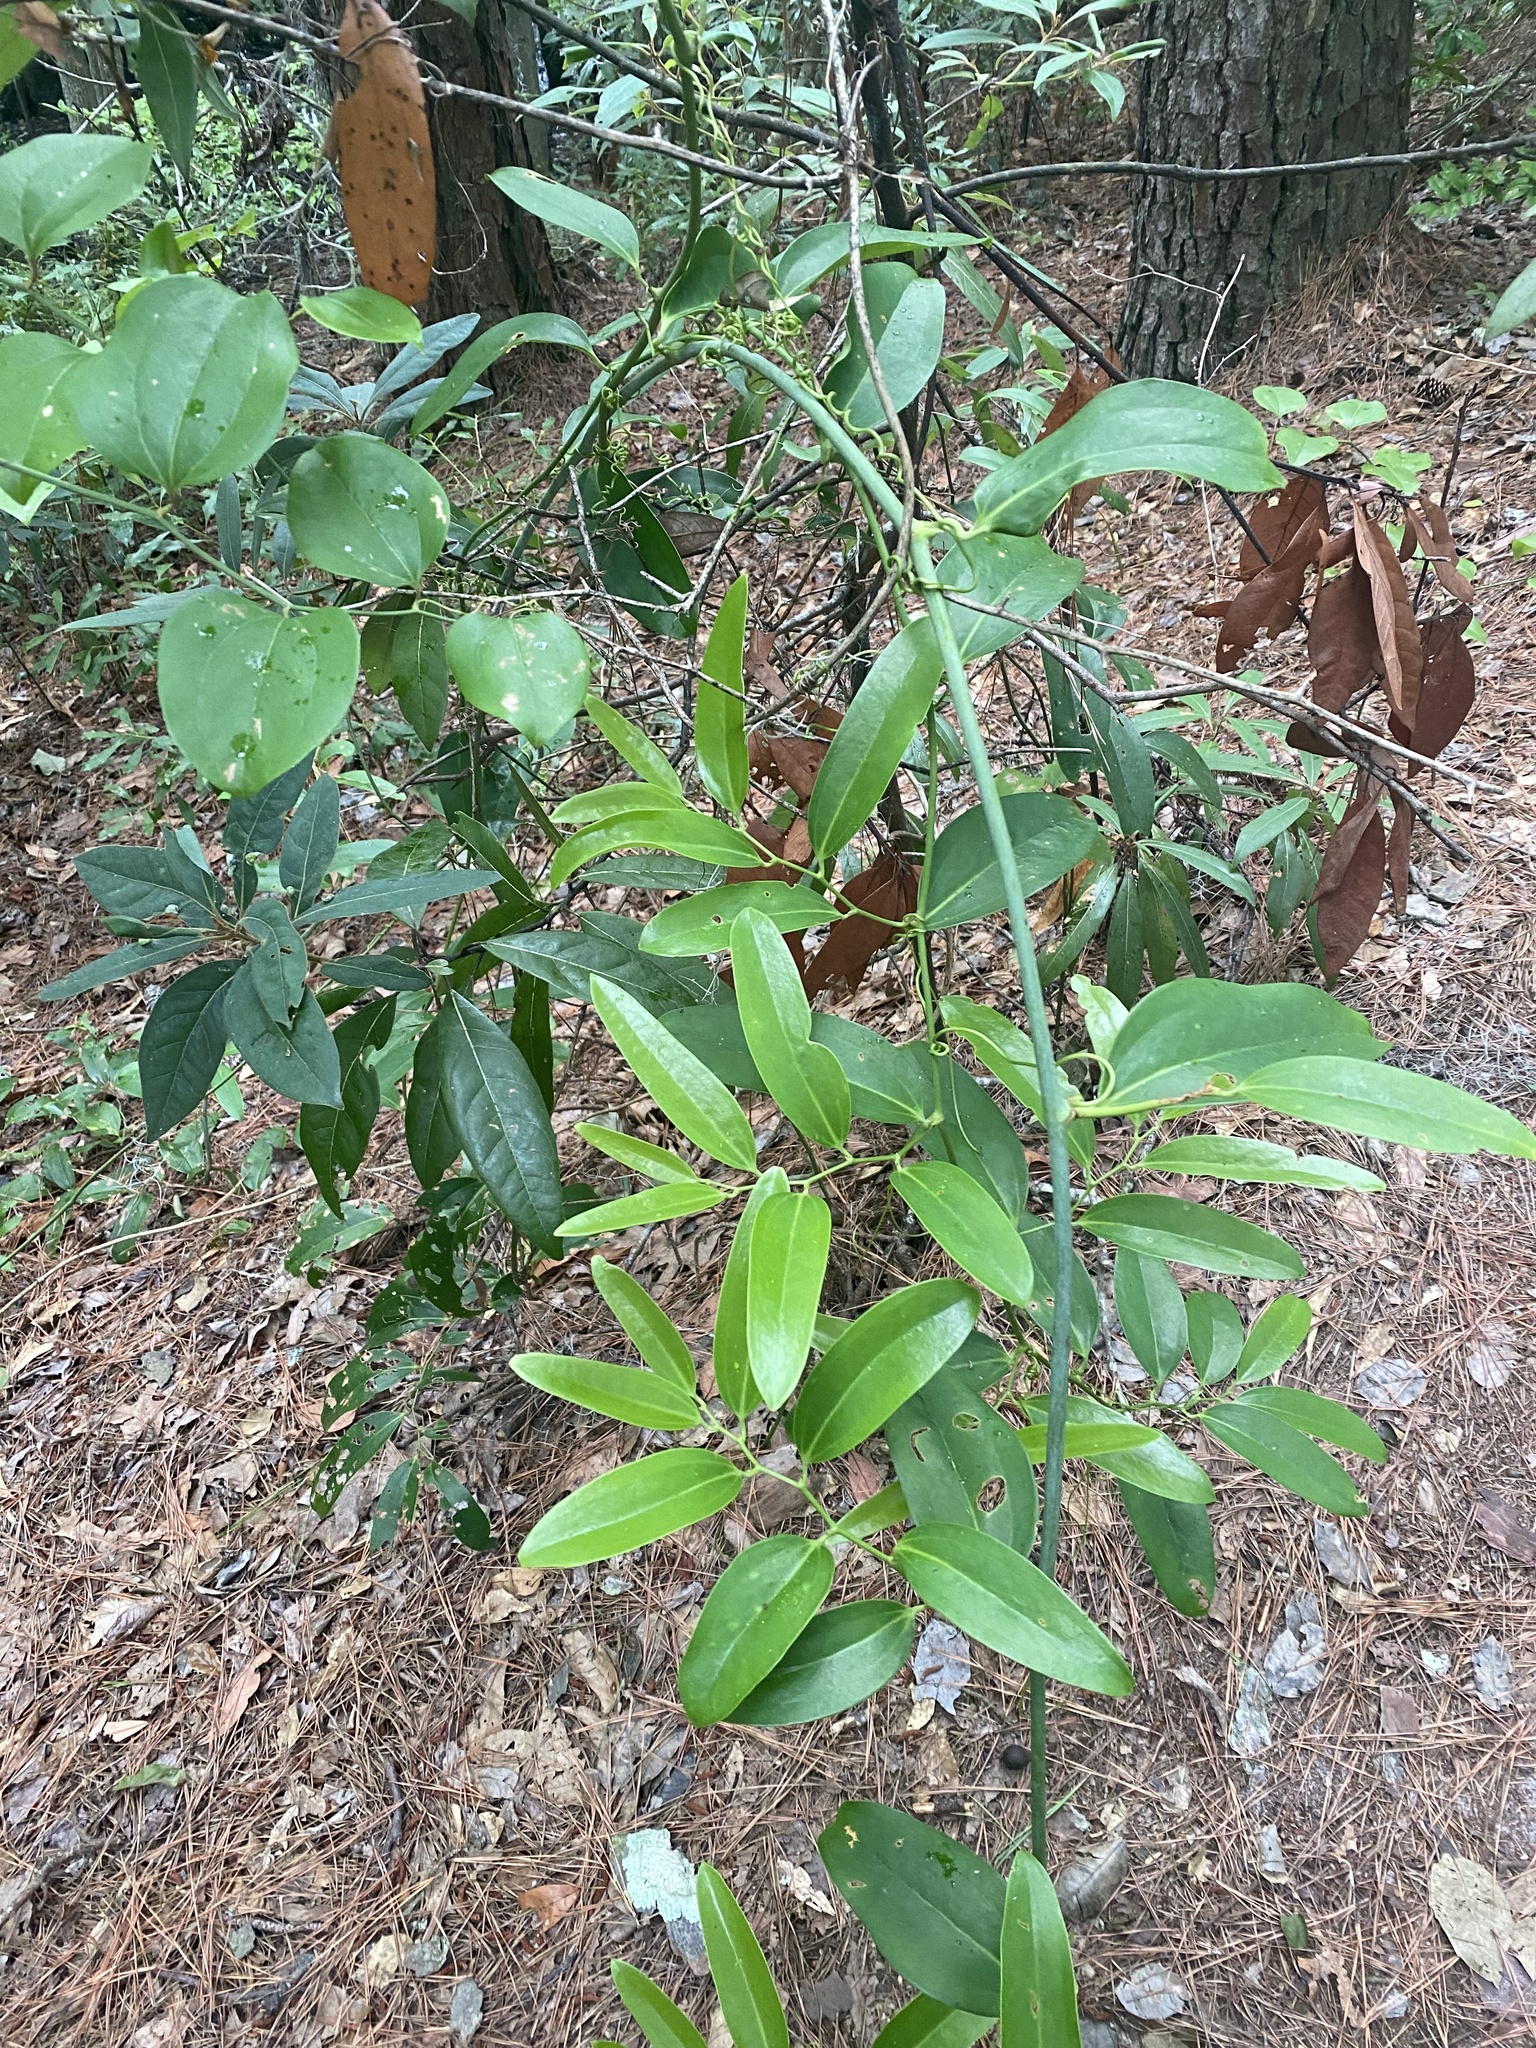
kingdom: Plantae
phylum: Tracheophyta
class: Liliopsida
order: Liliales
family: Smilacaceae
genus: Smilax
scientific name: Smilax laurifolia
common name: Bamboovine
